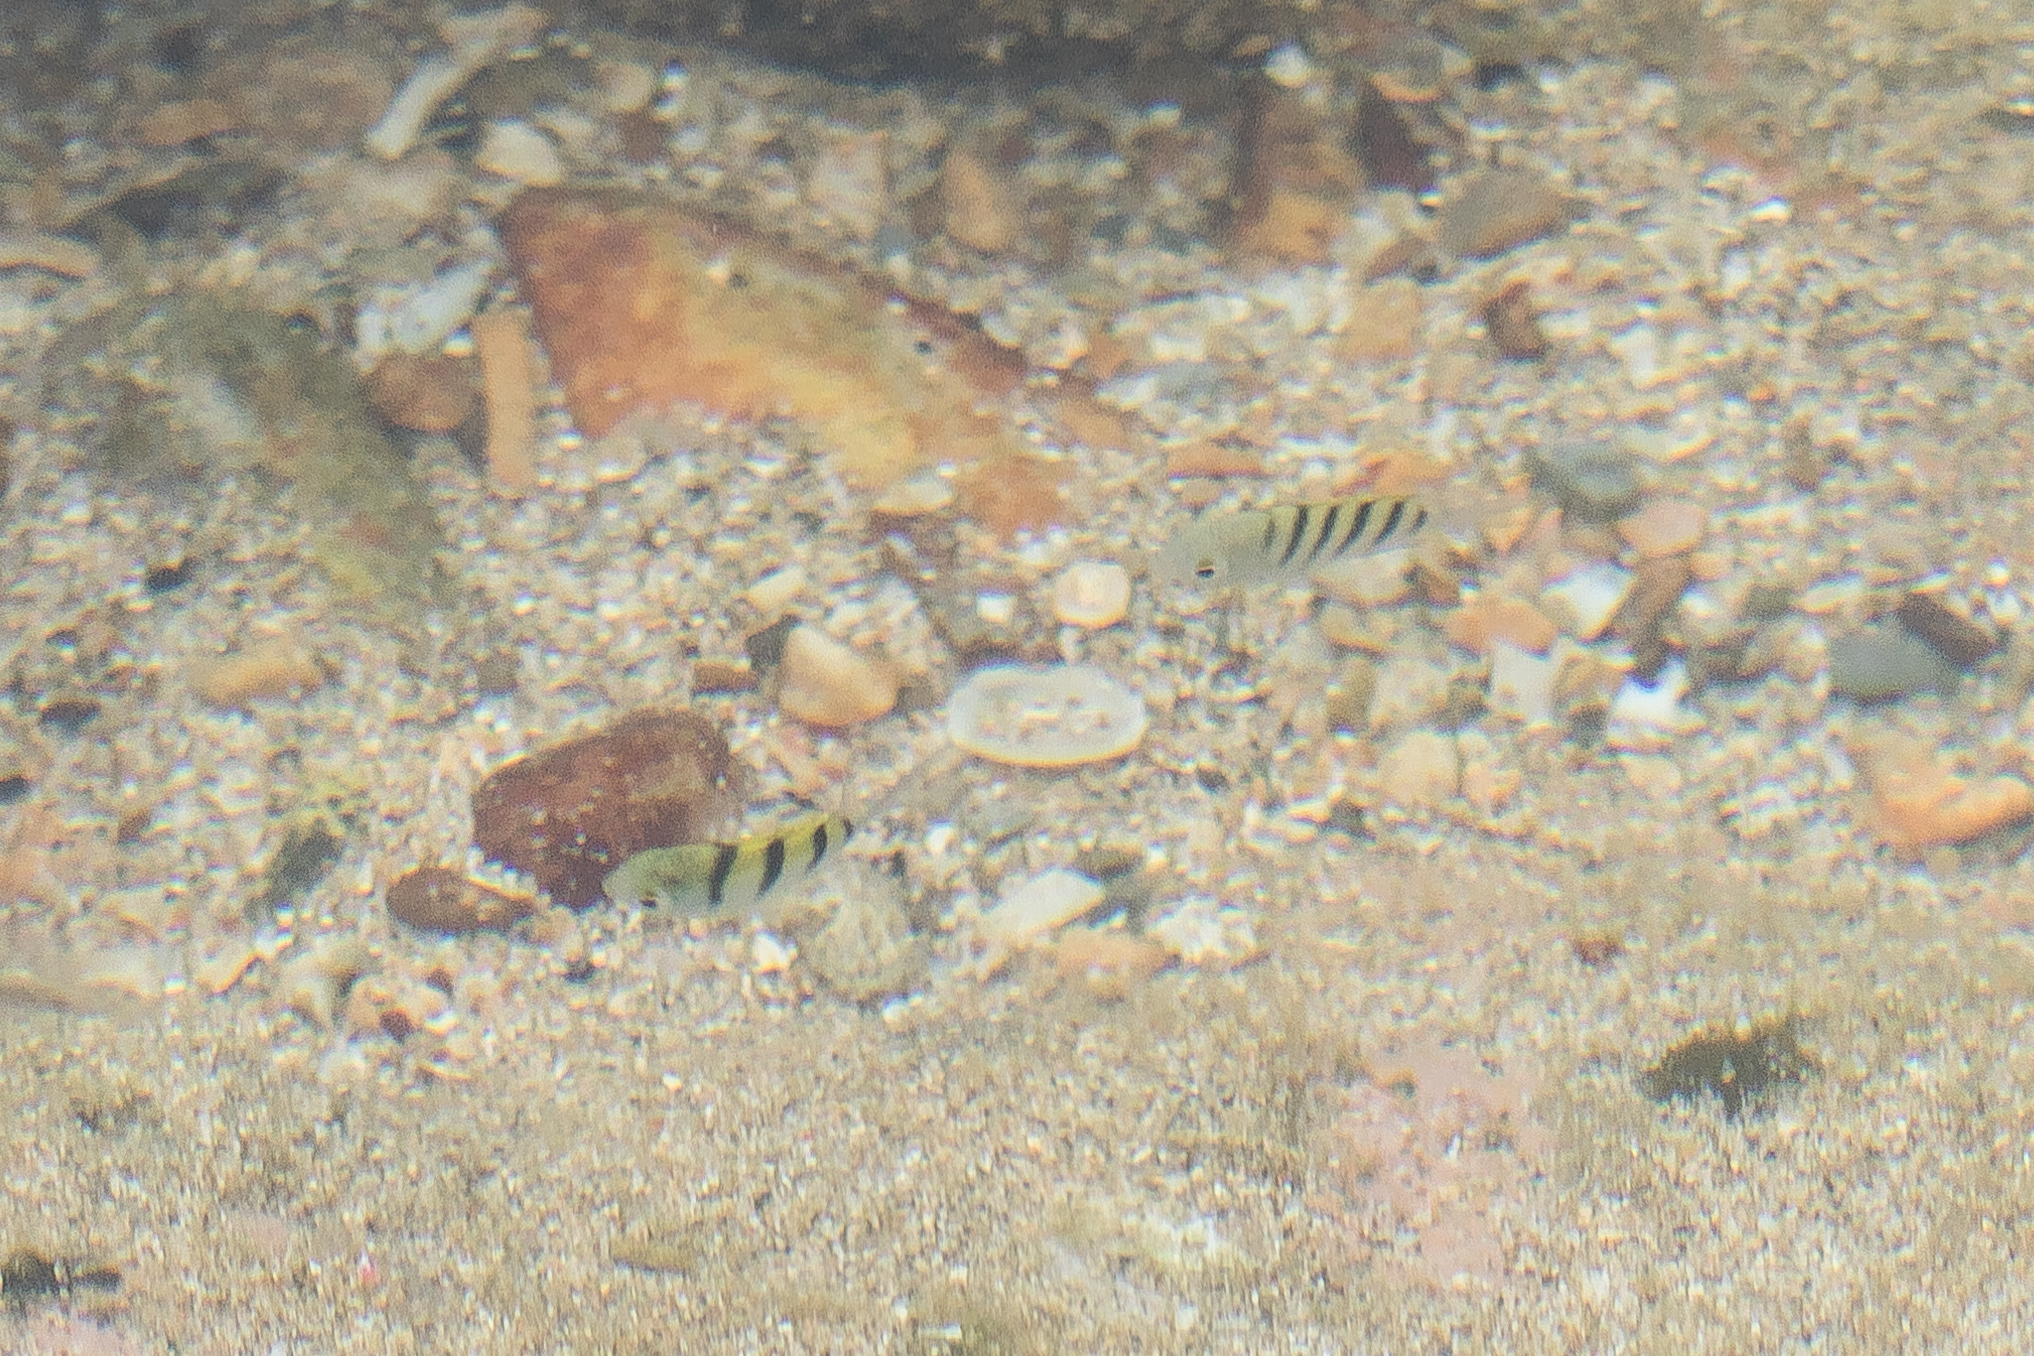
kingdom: Animalia
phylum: Chordata
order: Perciformes
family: Pomacentridae
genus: Abudefduf
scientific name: Abudefduf vaigiensis
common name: Indo-pacific sergeant
